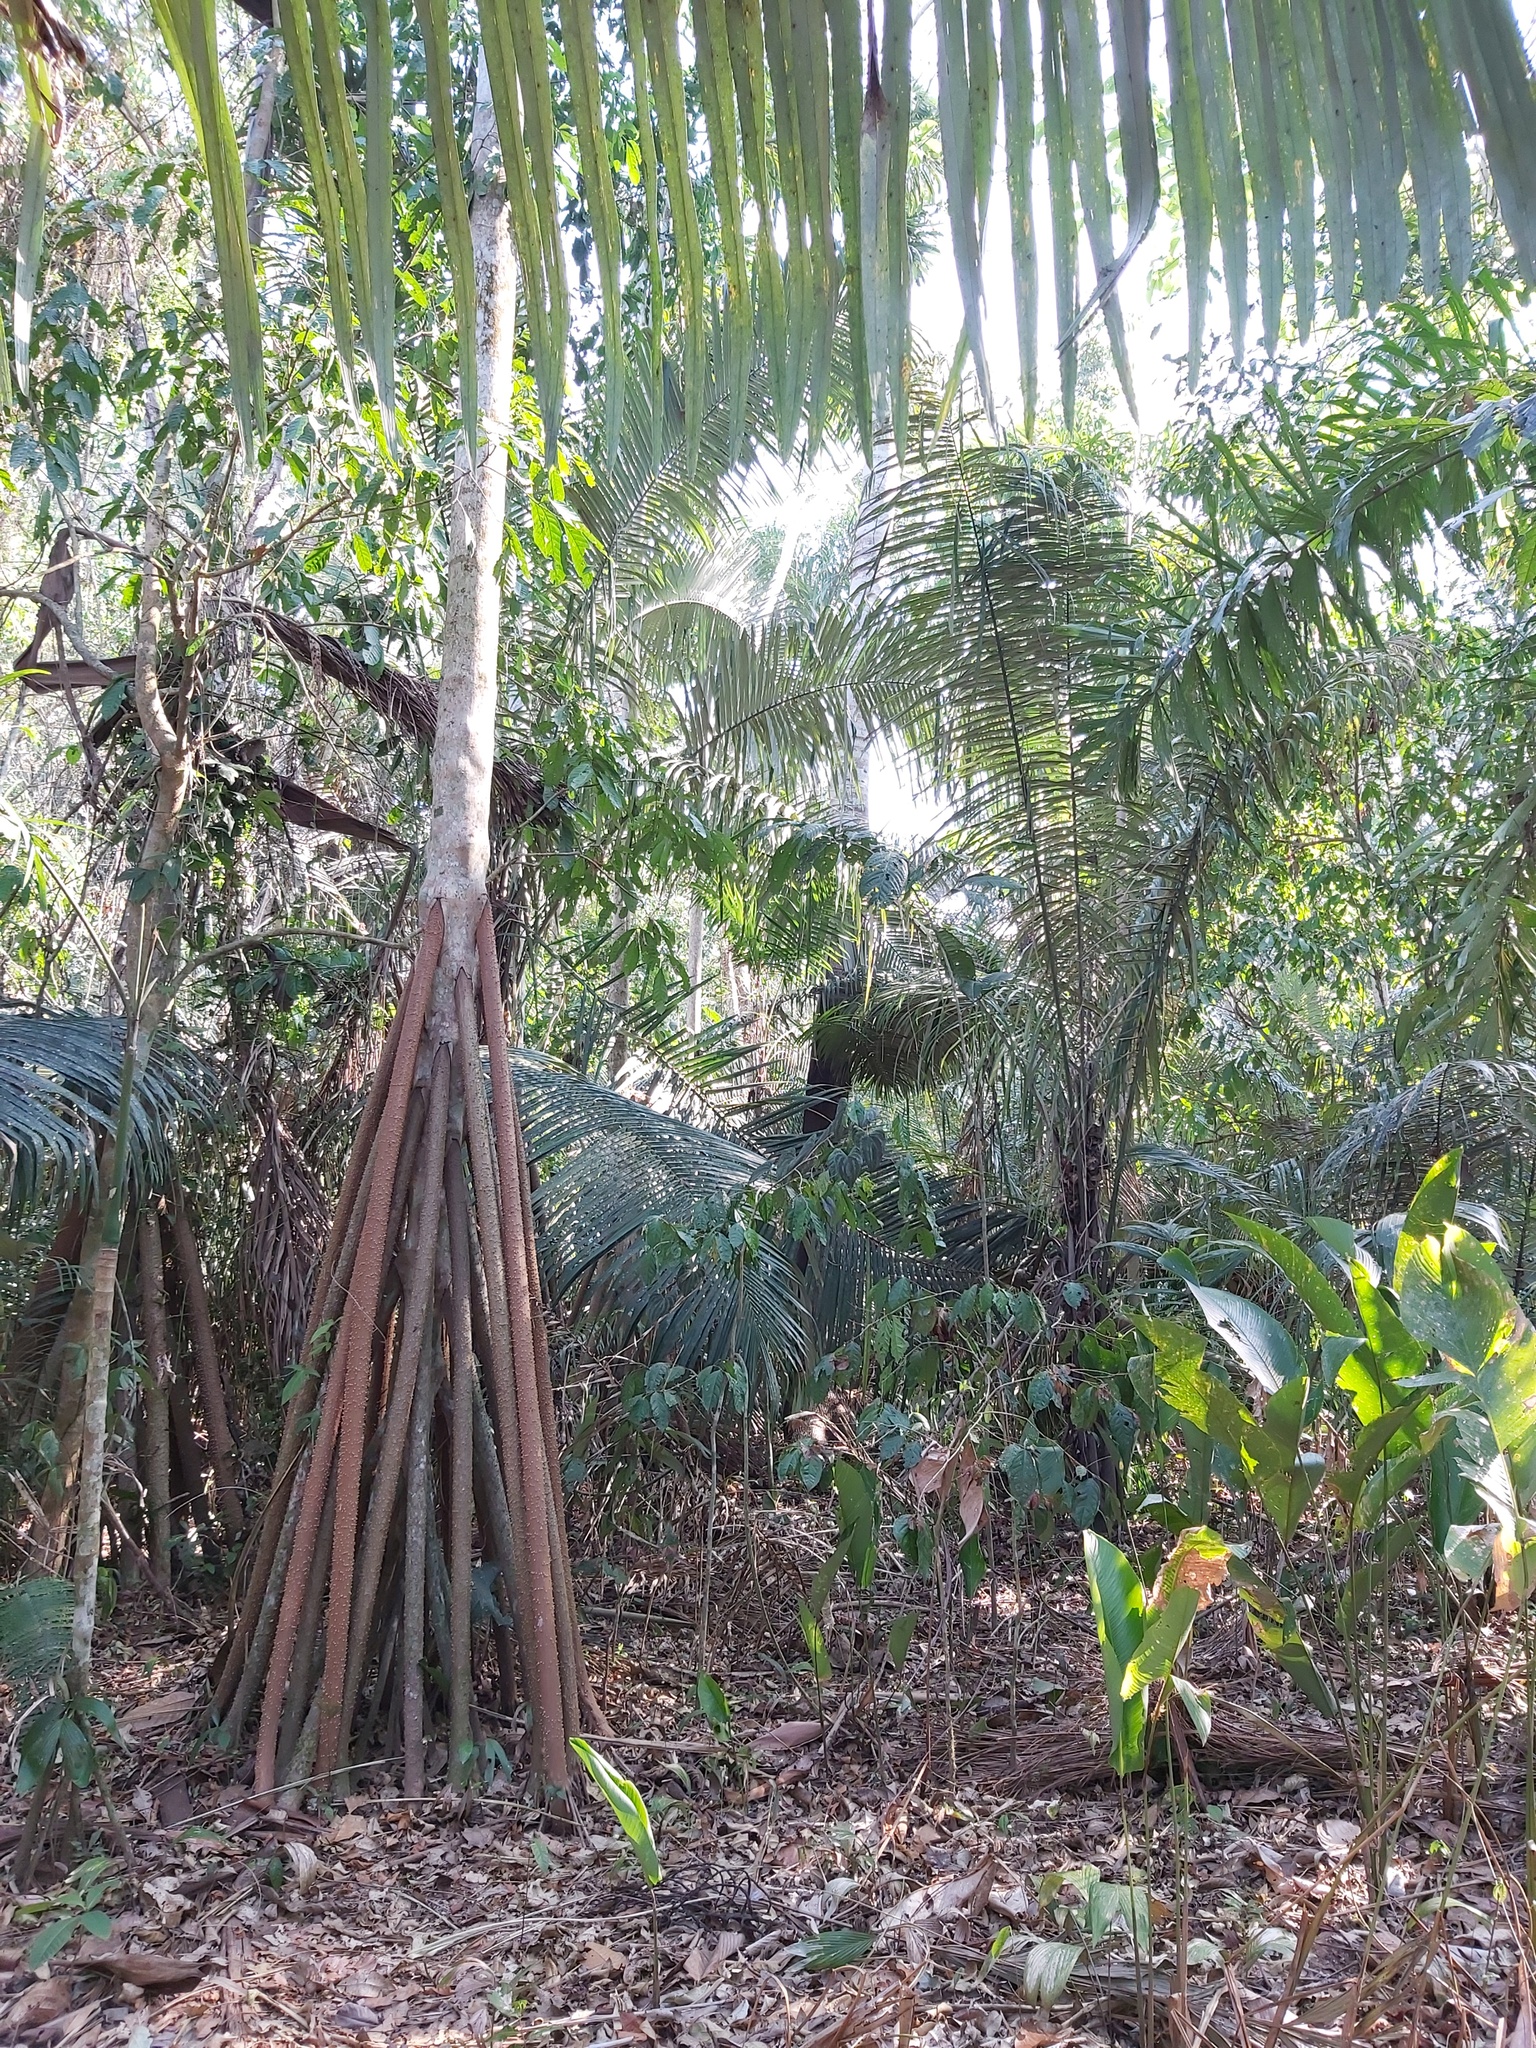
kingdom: Plantae
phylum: Tracheophyta
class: Liliopsida
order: Arecales
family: Arecaceae
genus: Socratea
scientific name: Socratea exorrhiza
